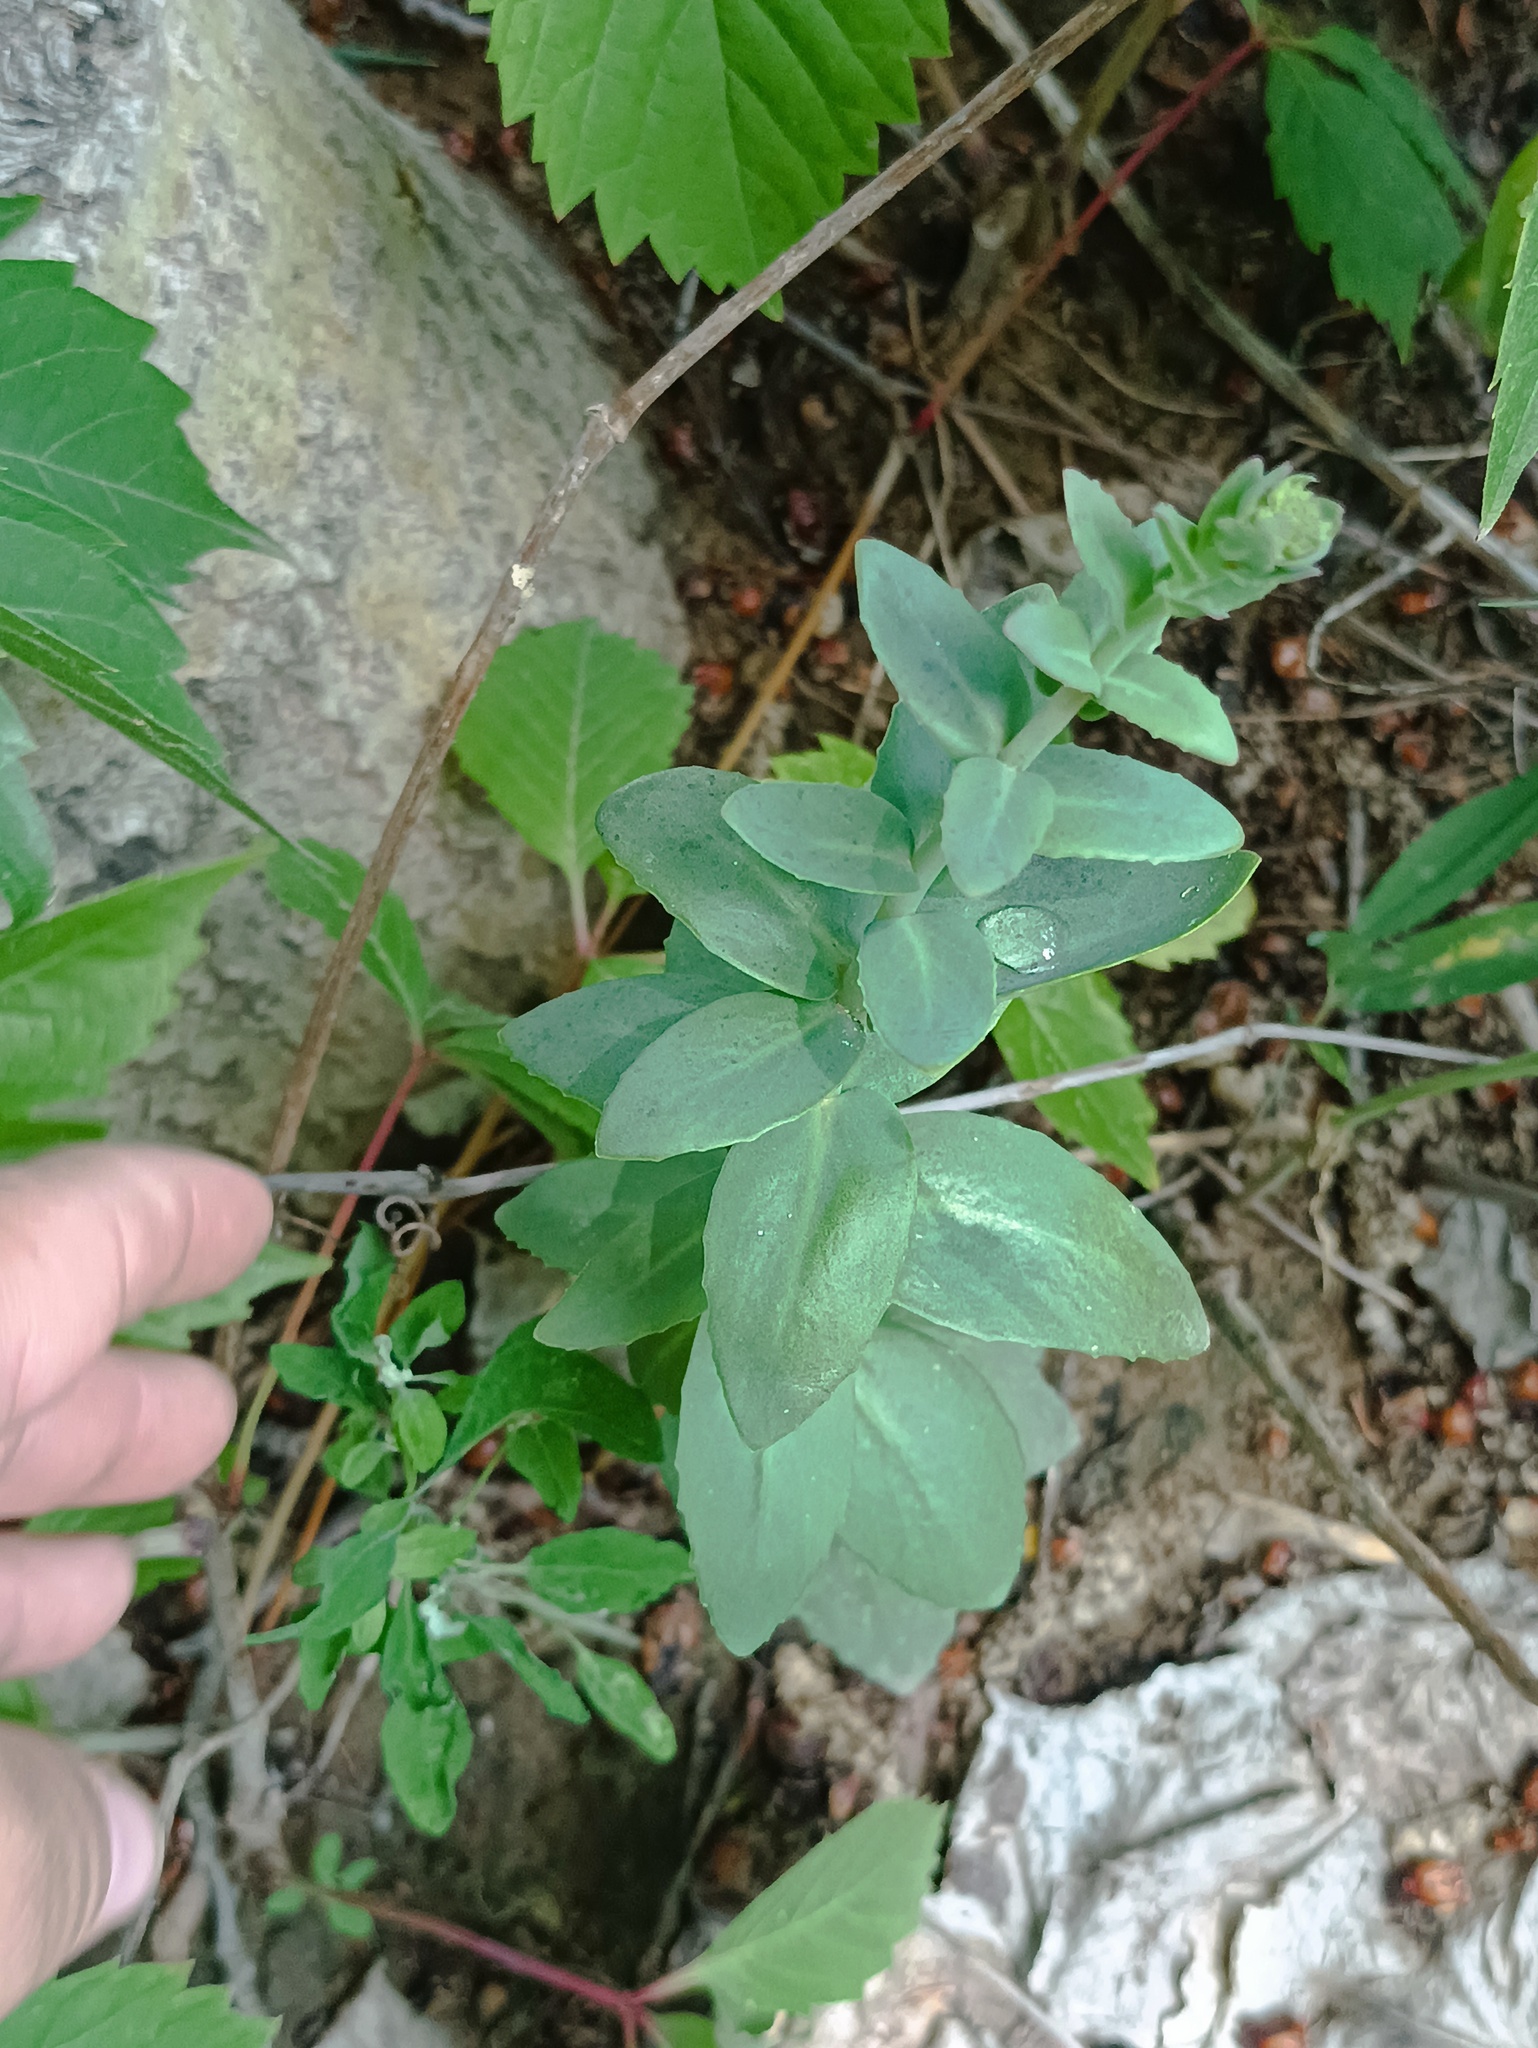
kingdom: Plantae
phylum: Tracheophyta
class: Magnoliopsida
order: Saxifragales
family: Crassulaceae
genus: Hylotelephium
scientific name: Hylotelephium maximum
